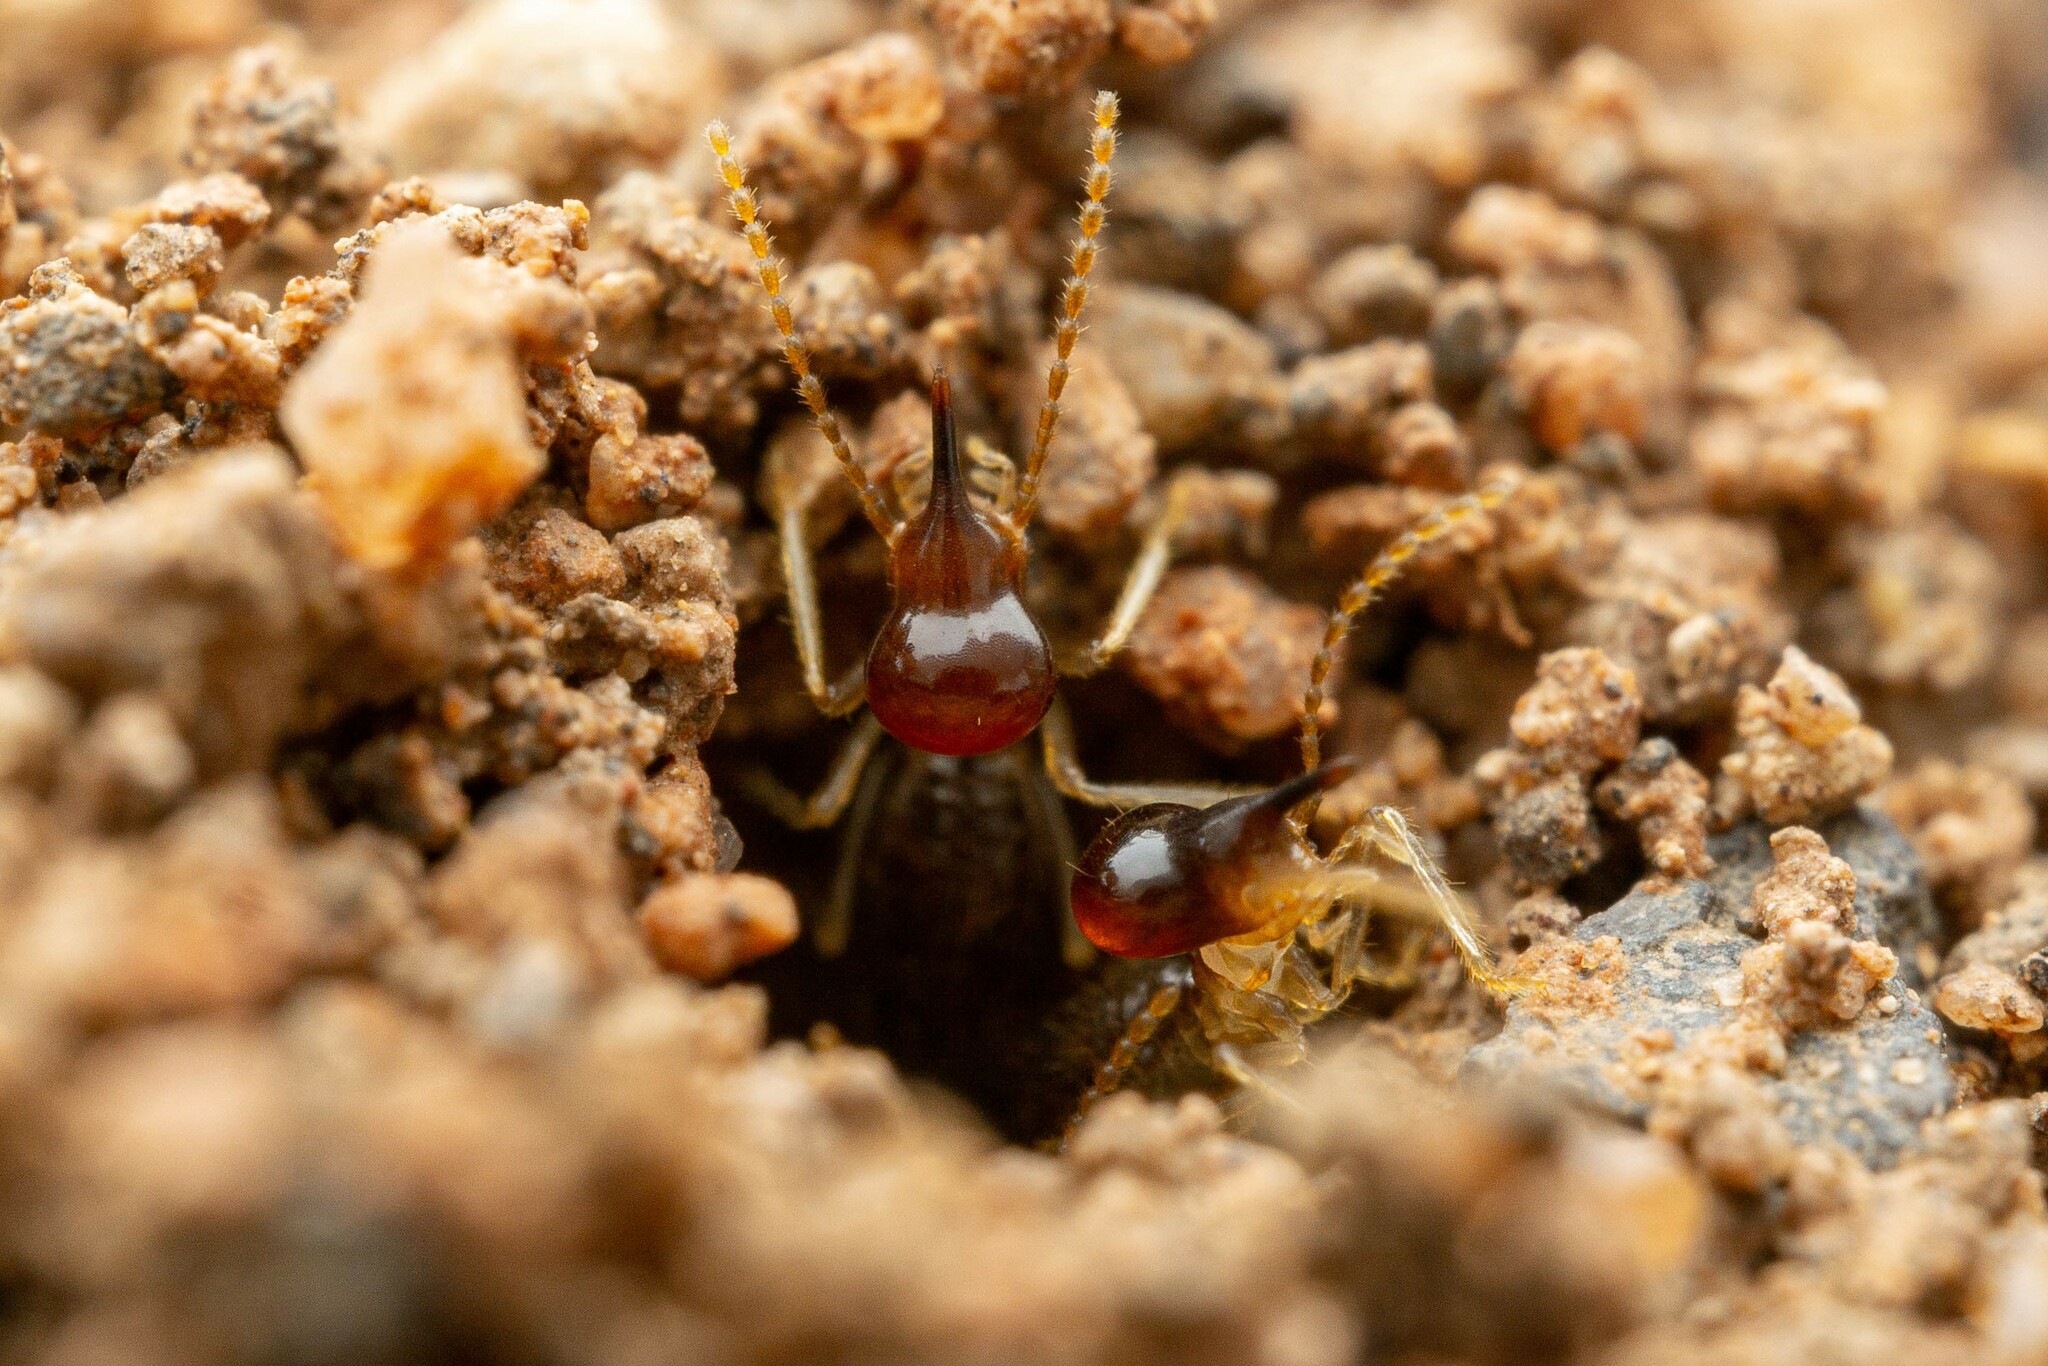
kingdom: Animalia
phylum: Arthropoda
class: Insecta
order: Blattodea
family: Termitidae
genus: Tenuirostritermes
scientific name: Tenuirostritermes tenuirostris
